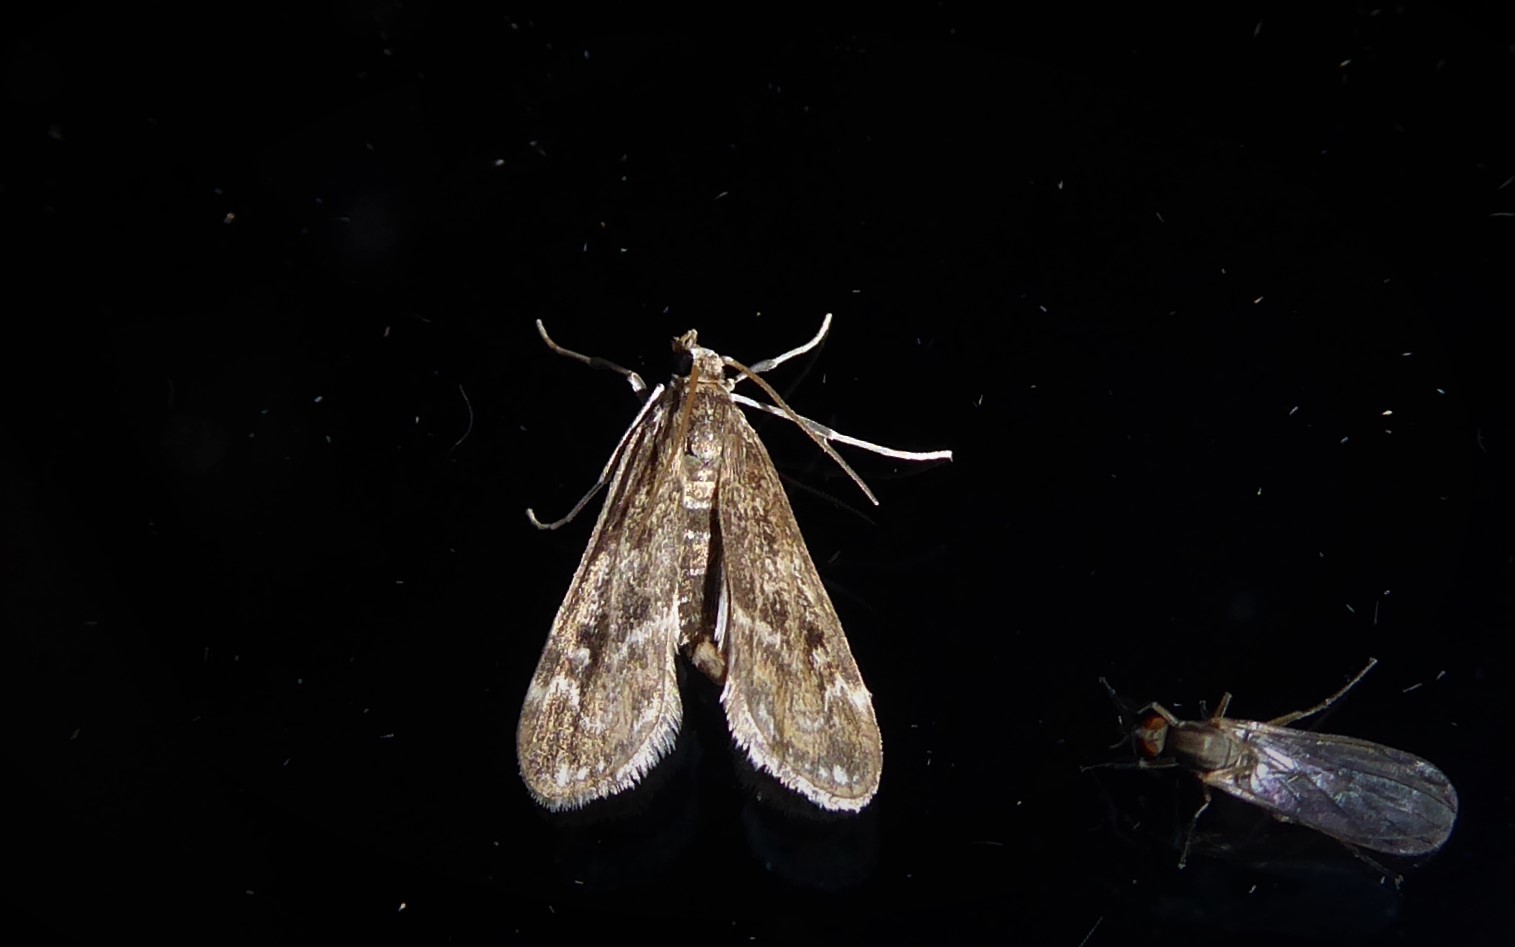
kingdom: Animalia
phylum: Arthropoda
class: Insecta
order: Lepidoptera
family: Crambidae
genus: Hygraula
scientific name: Hygraula nitens
